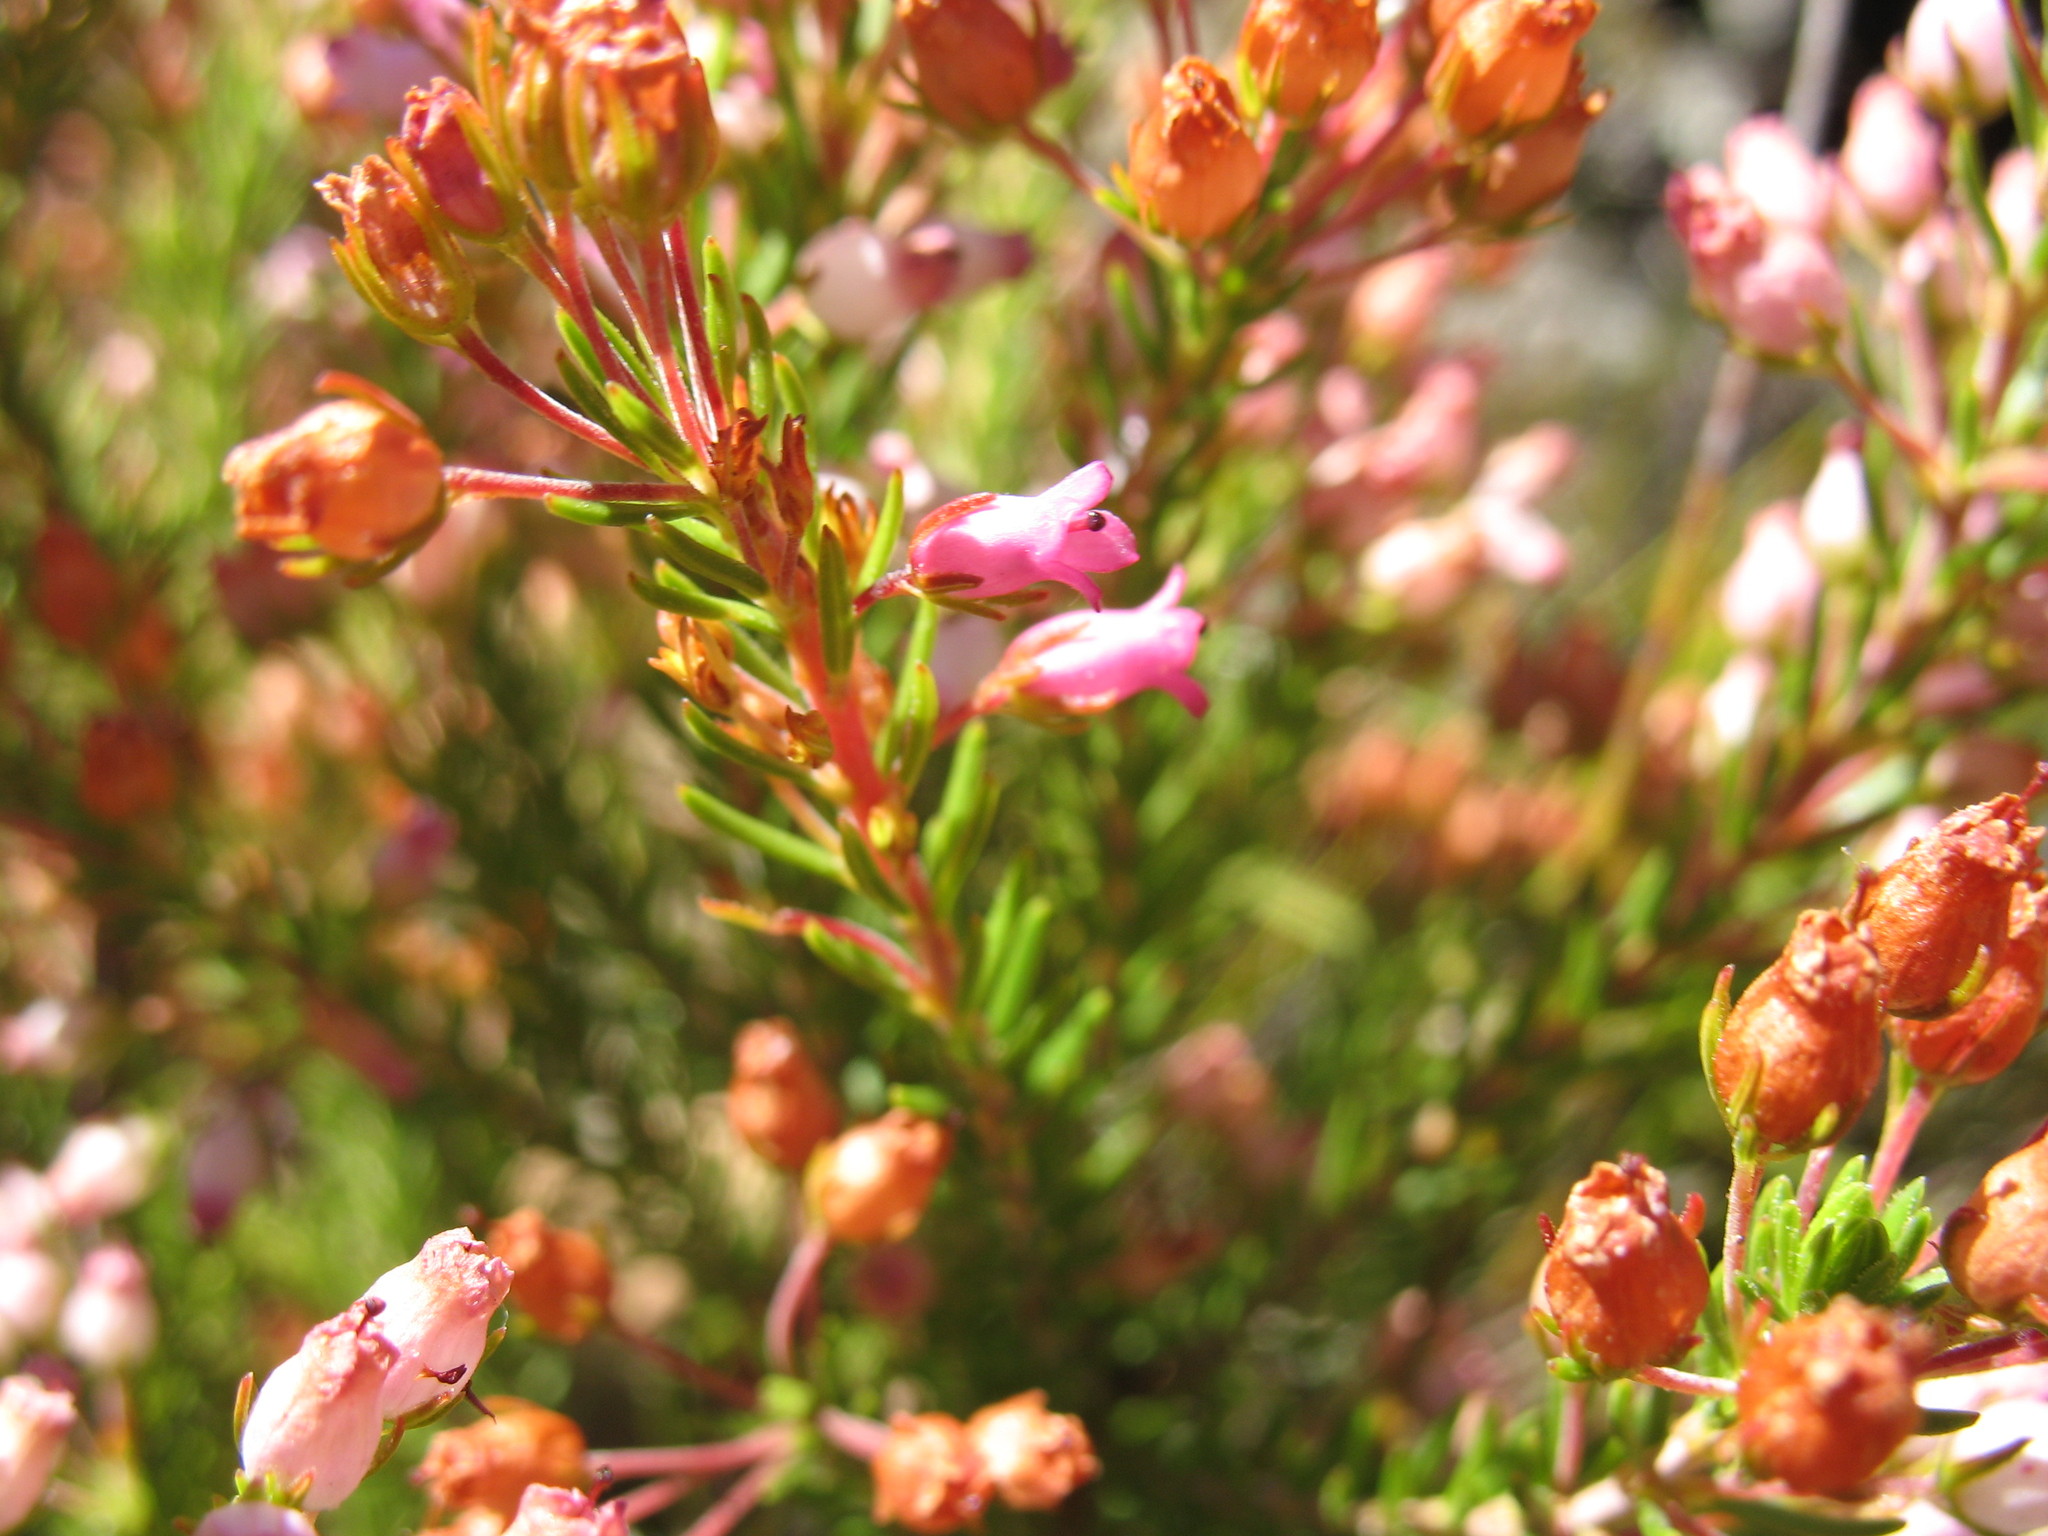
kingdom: Plantae
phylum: Tracheophyta
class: Magnoliopsida
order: Ericales
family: Ericaceae
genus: Erica
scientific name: Erica phillipsii
